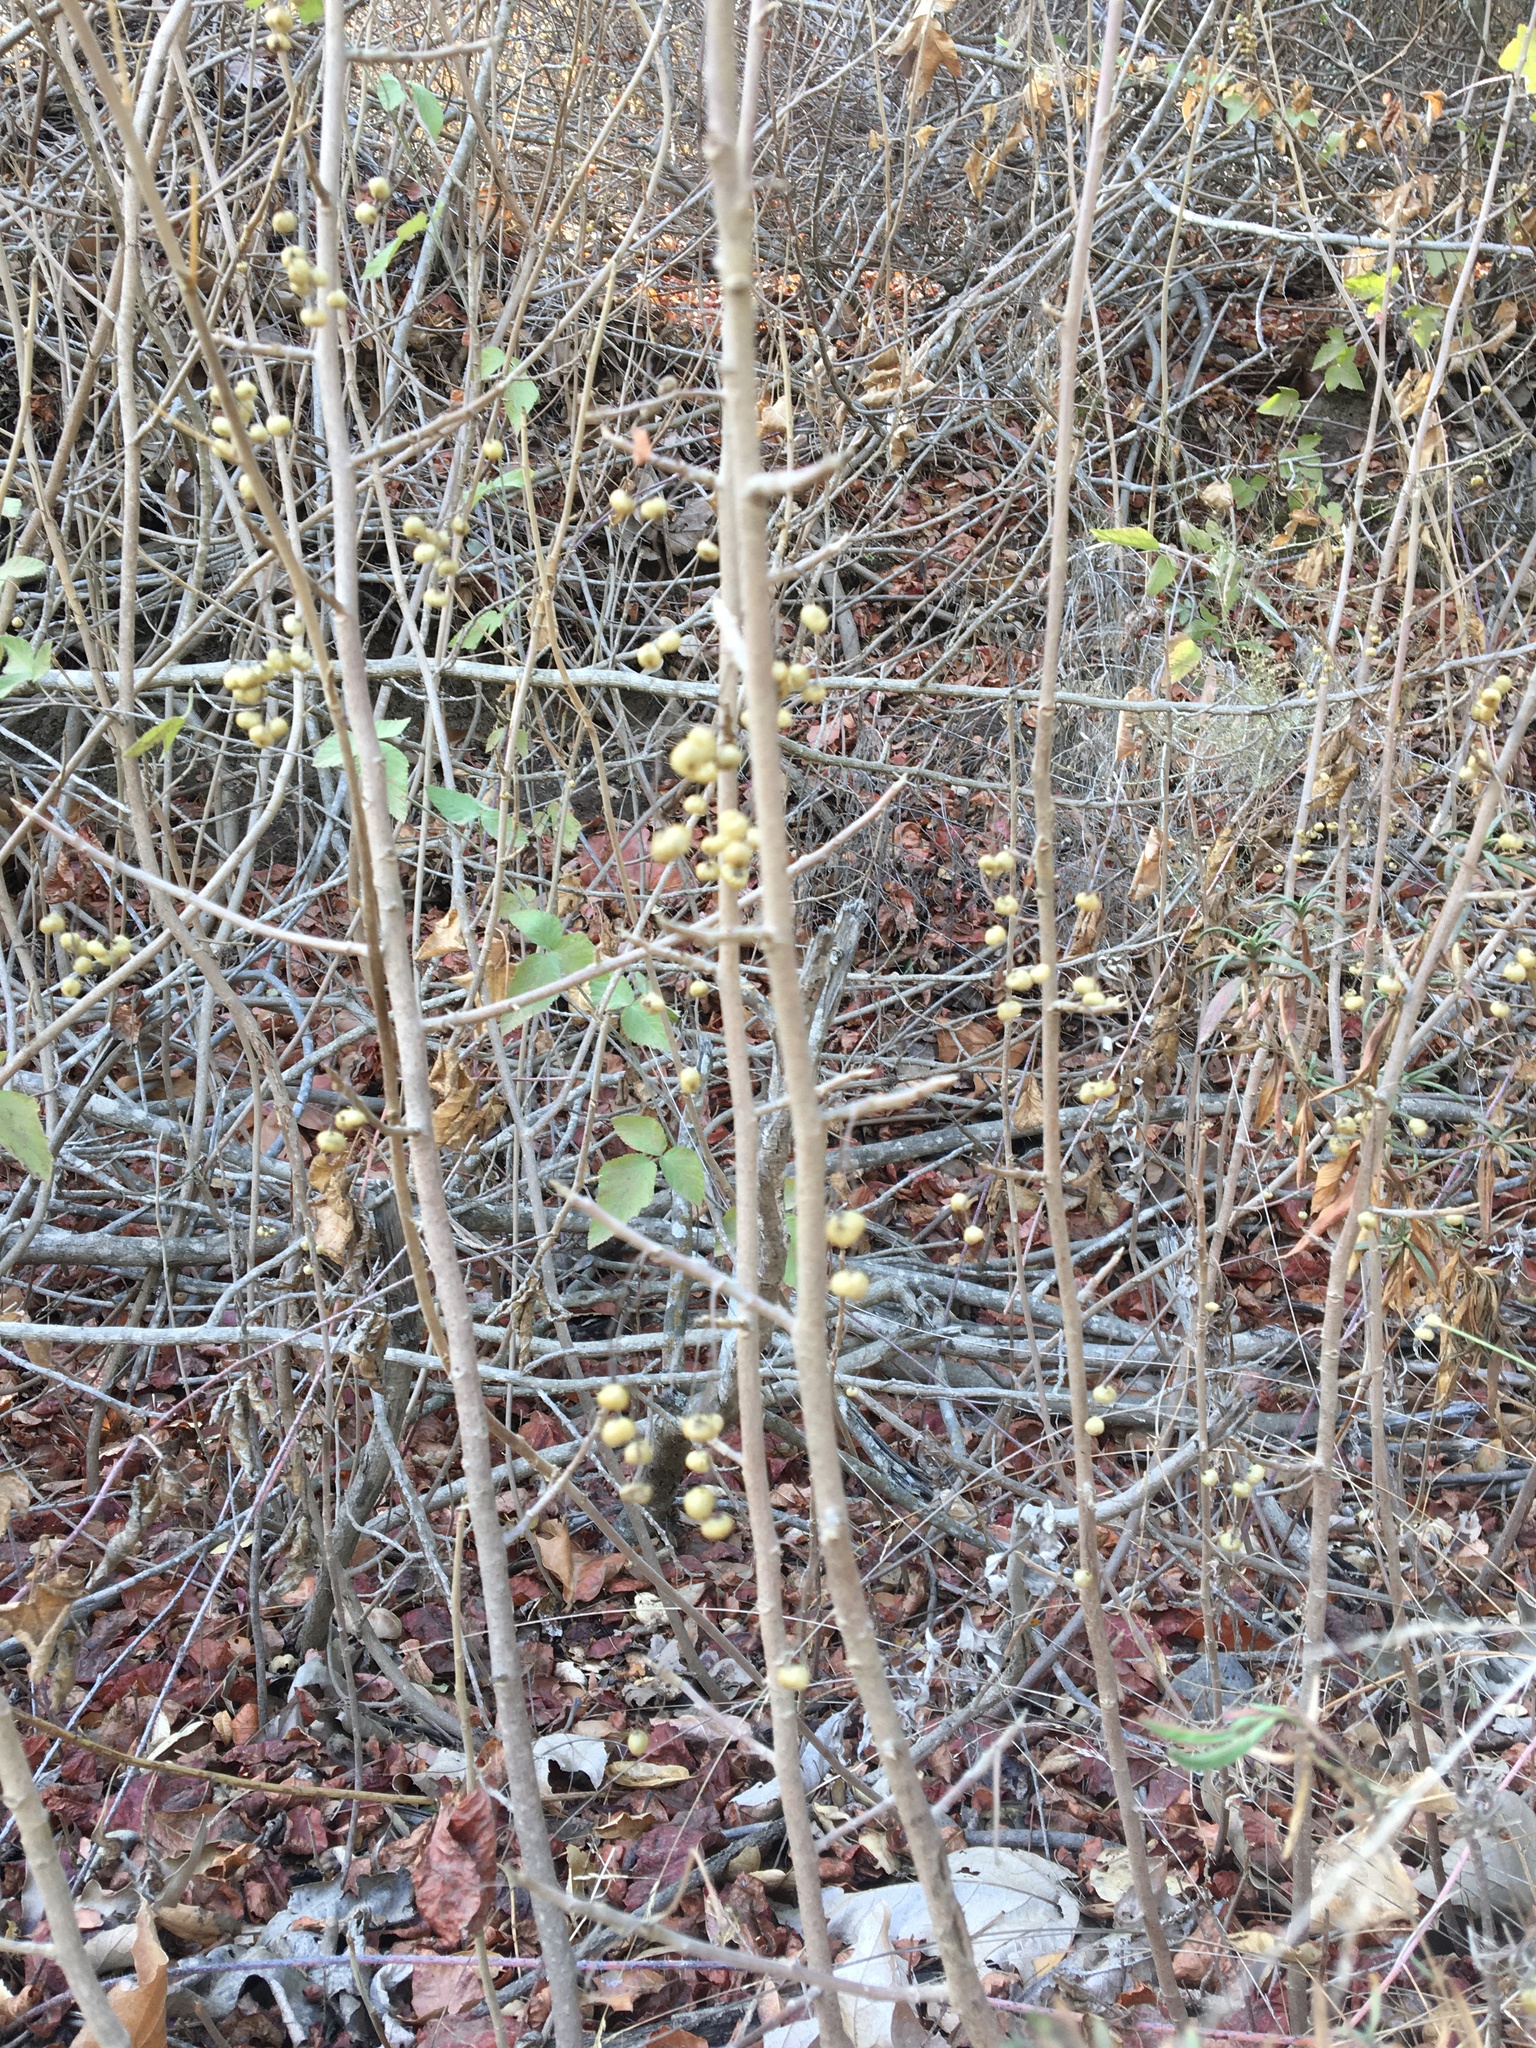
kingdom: Plantae
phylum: Tracheophyta
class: Magnoliopsida
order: Sapindales
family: Anacardiaceae
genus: Toxicodendron
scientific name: Toxicodendron diversilobum
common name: Pacific poison-oak
